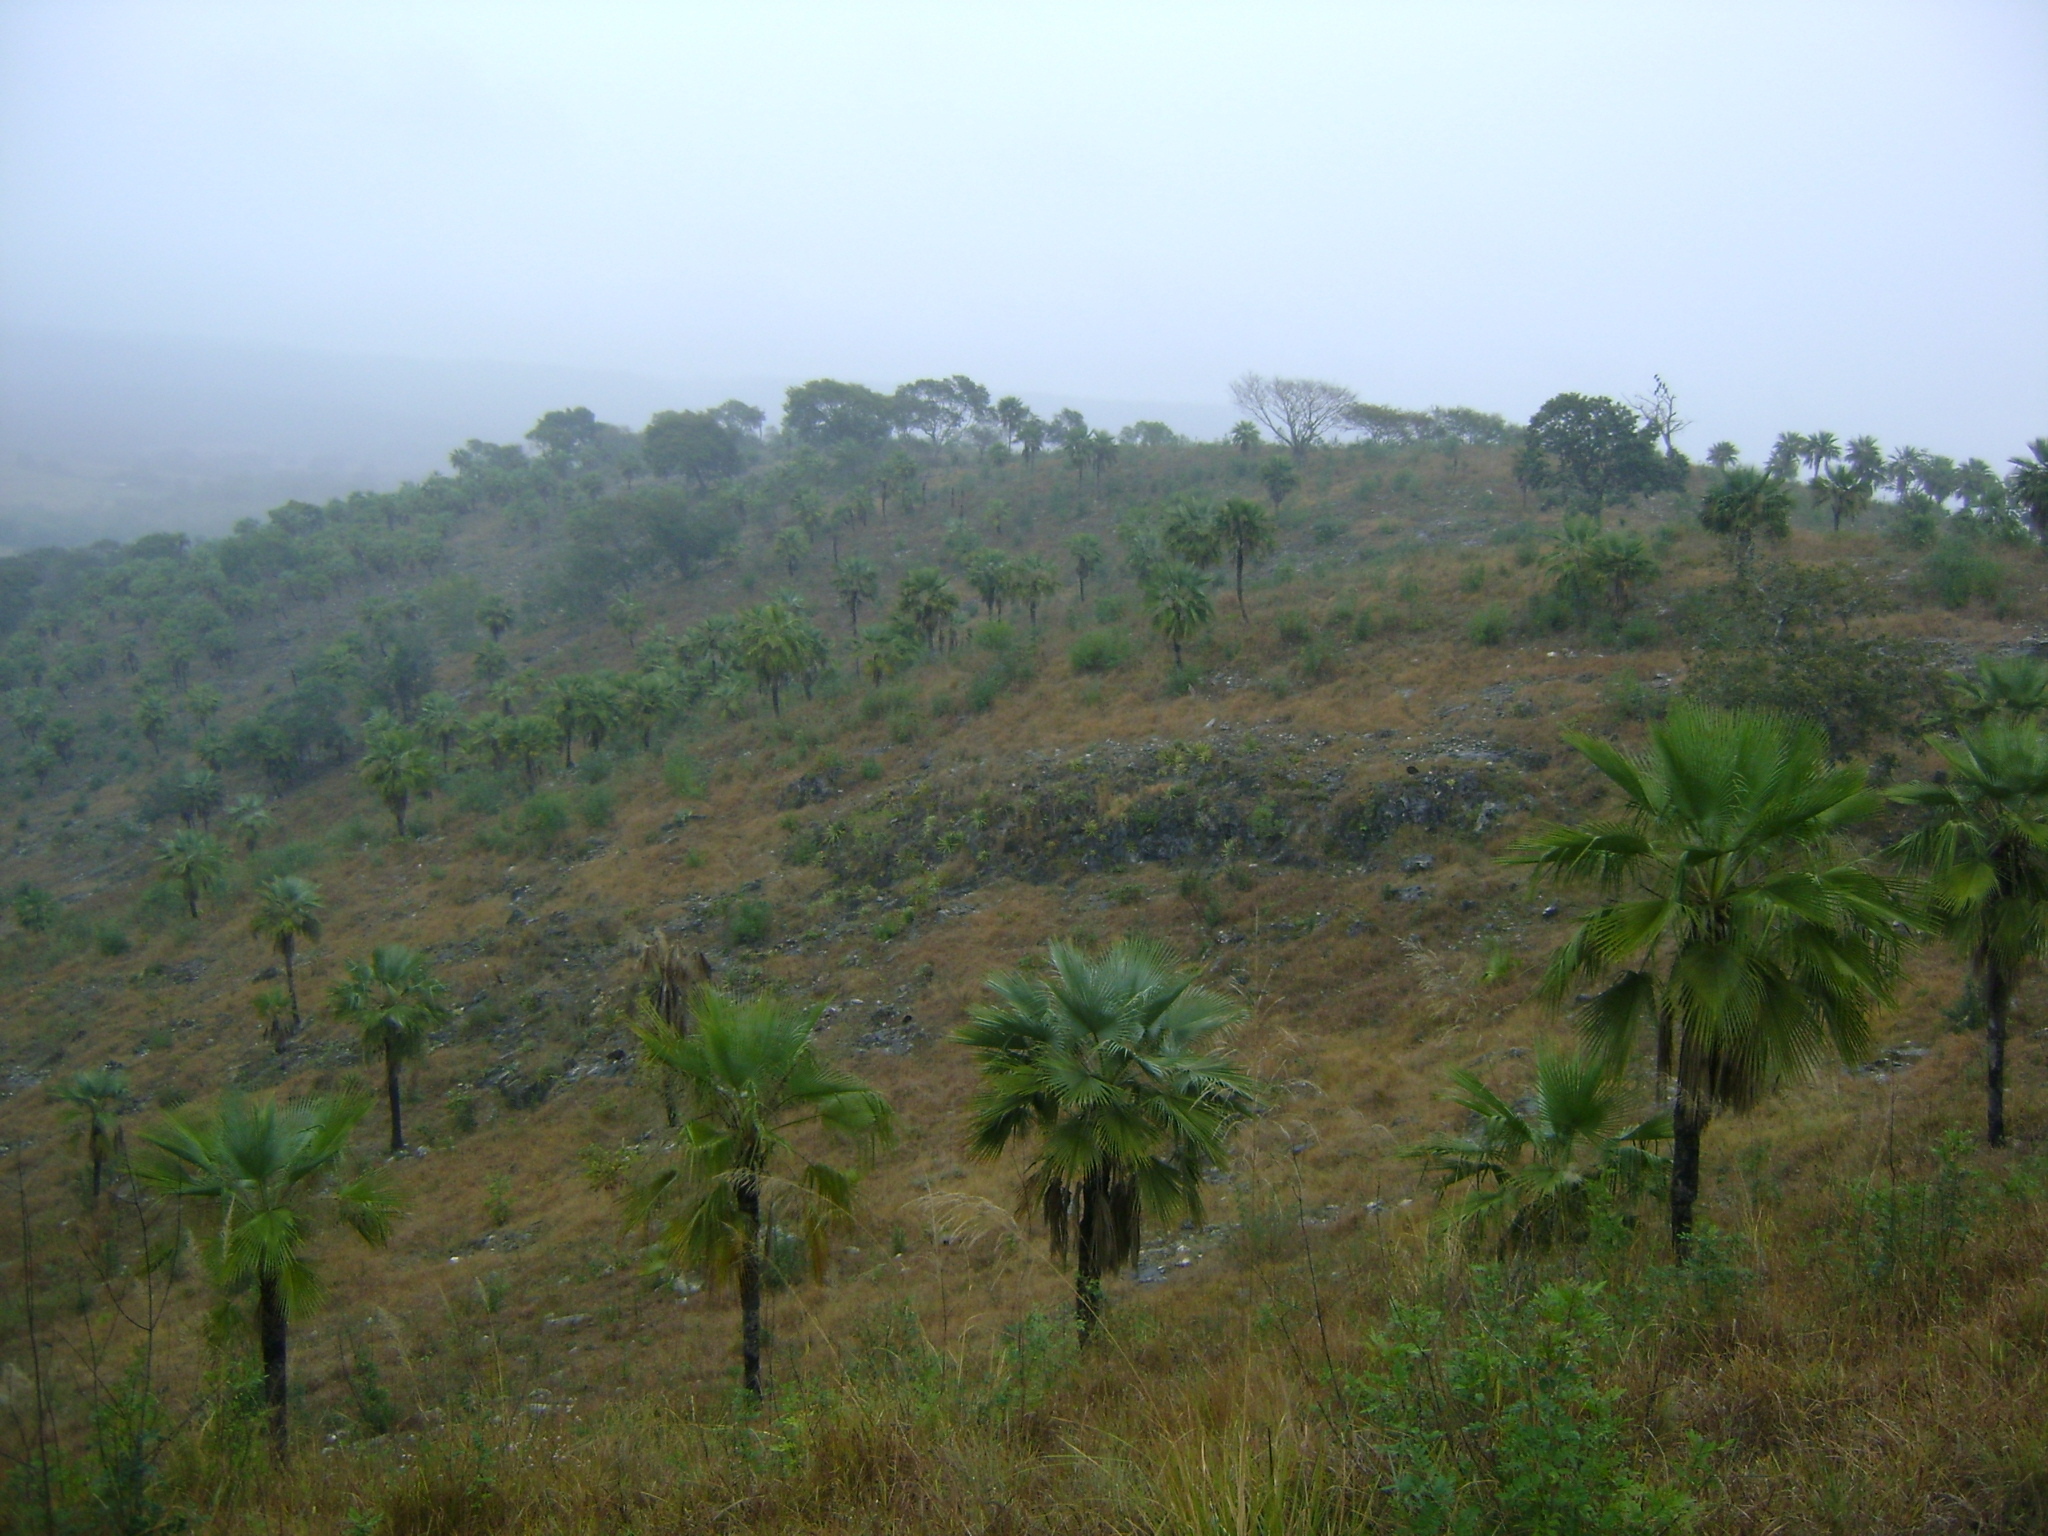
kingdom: Plantae
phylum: Tracheophyta
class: Liliopsida
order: Arecales
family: Arecaceae
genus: Brahea
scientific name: Brahea dulcis
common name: Apak palm
